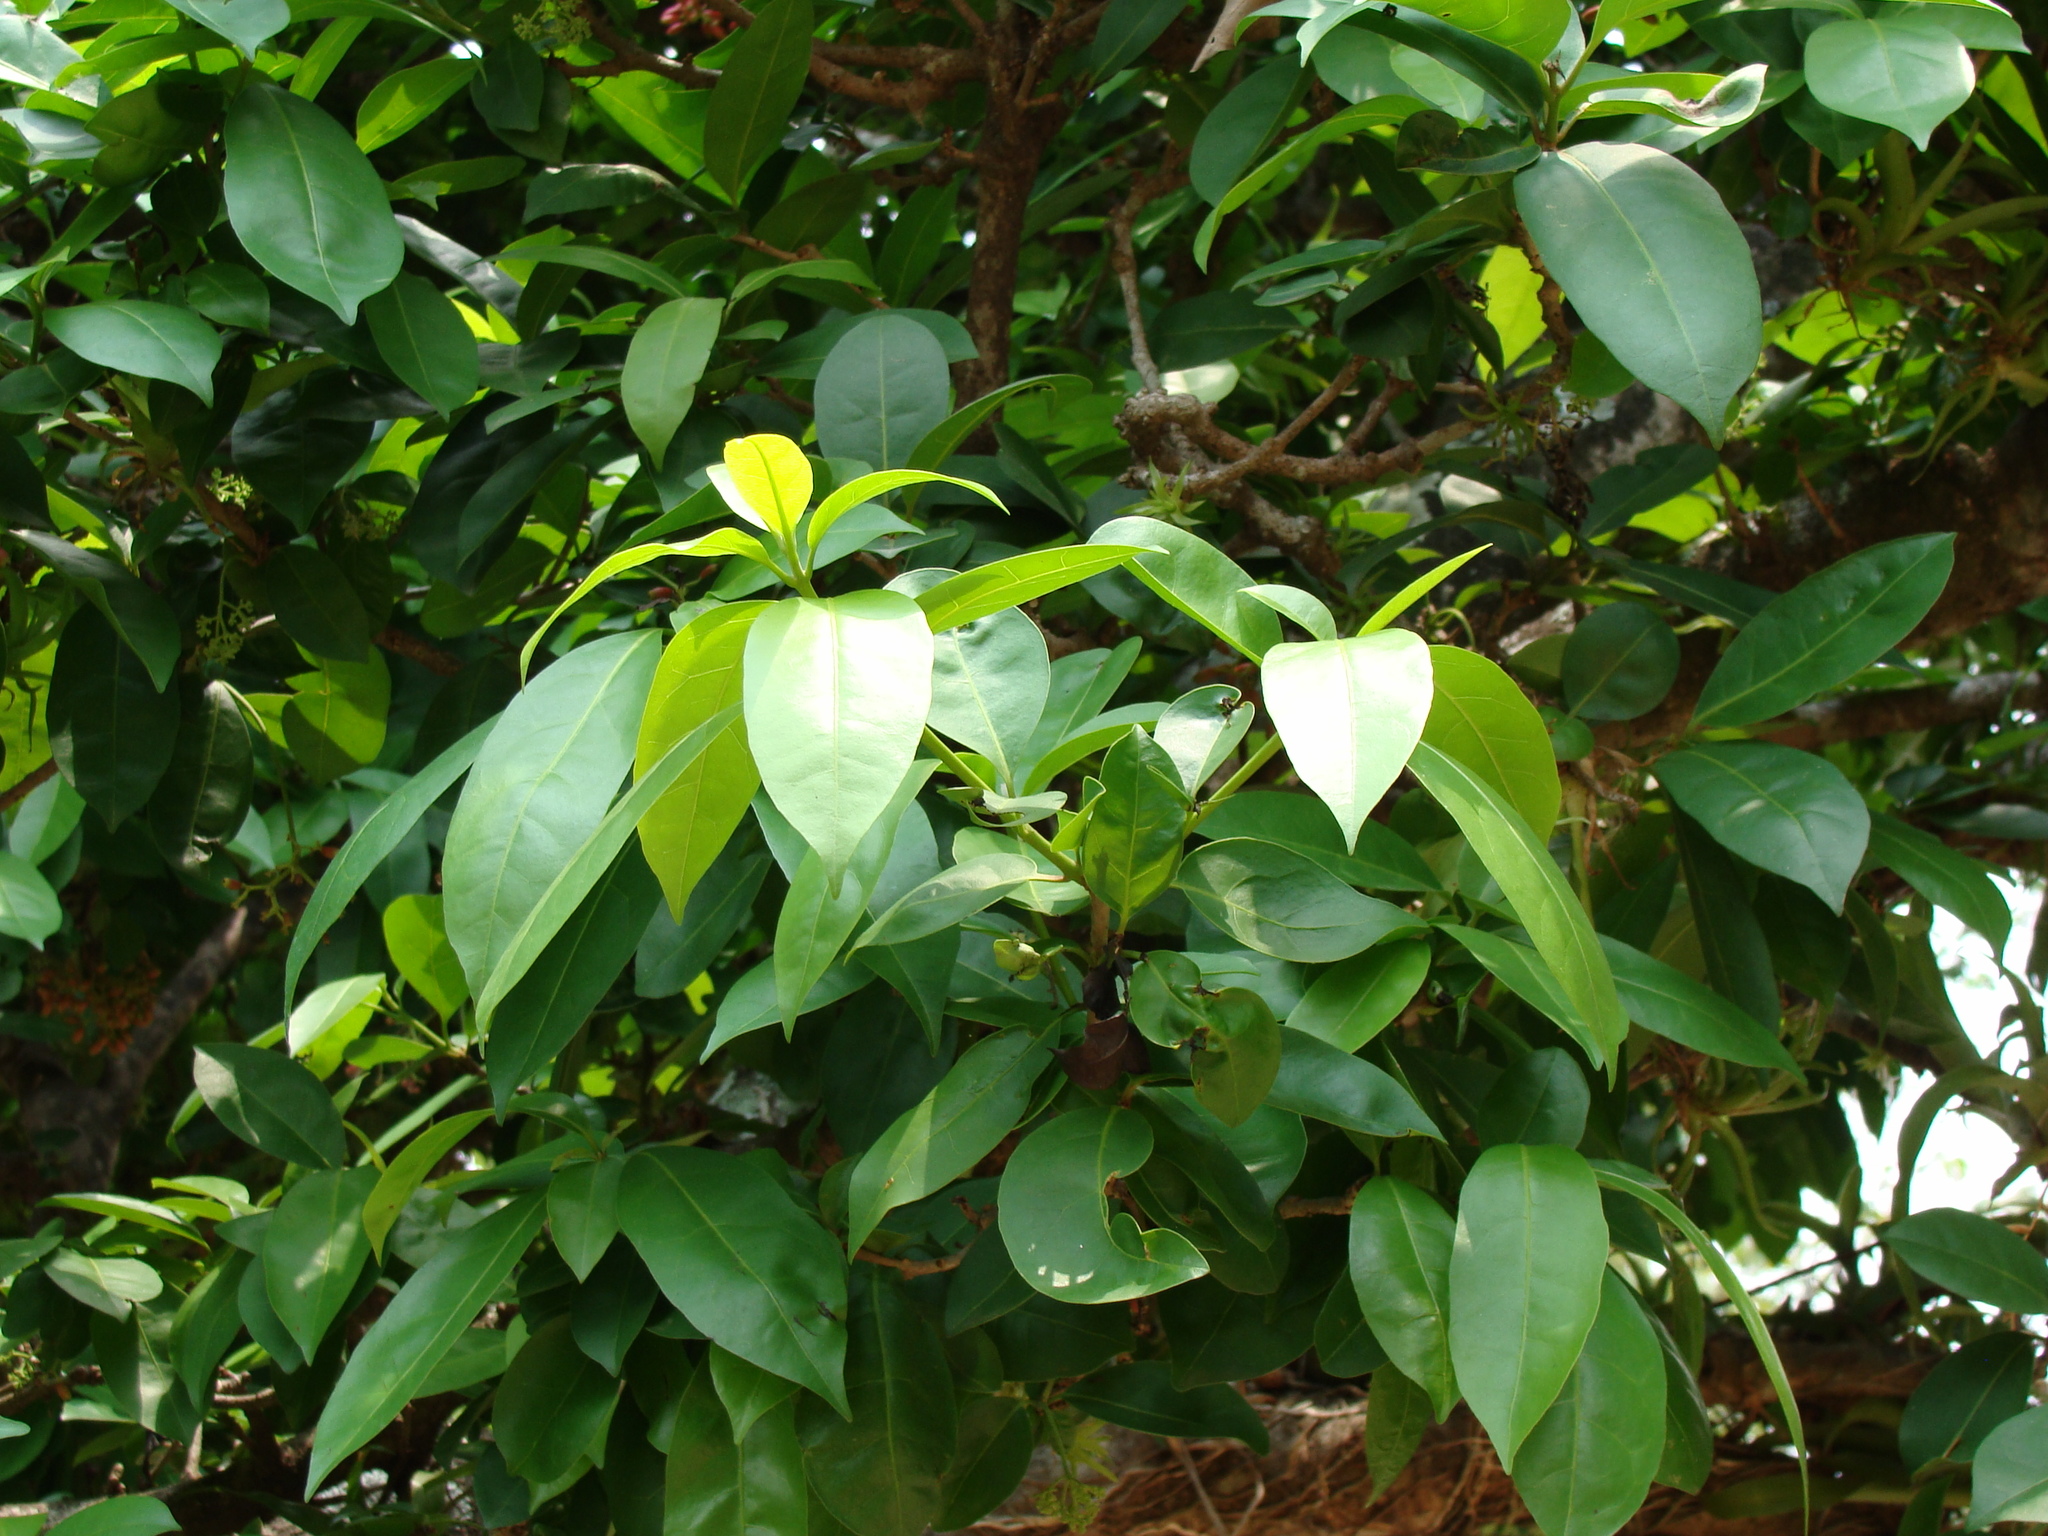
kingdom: Plantae
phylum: Tracheophyta
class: Magnoliopsida
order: Caryophyllales
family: Nyctaginaceae
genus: Neea
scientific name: Neea turbinata
